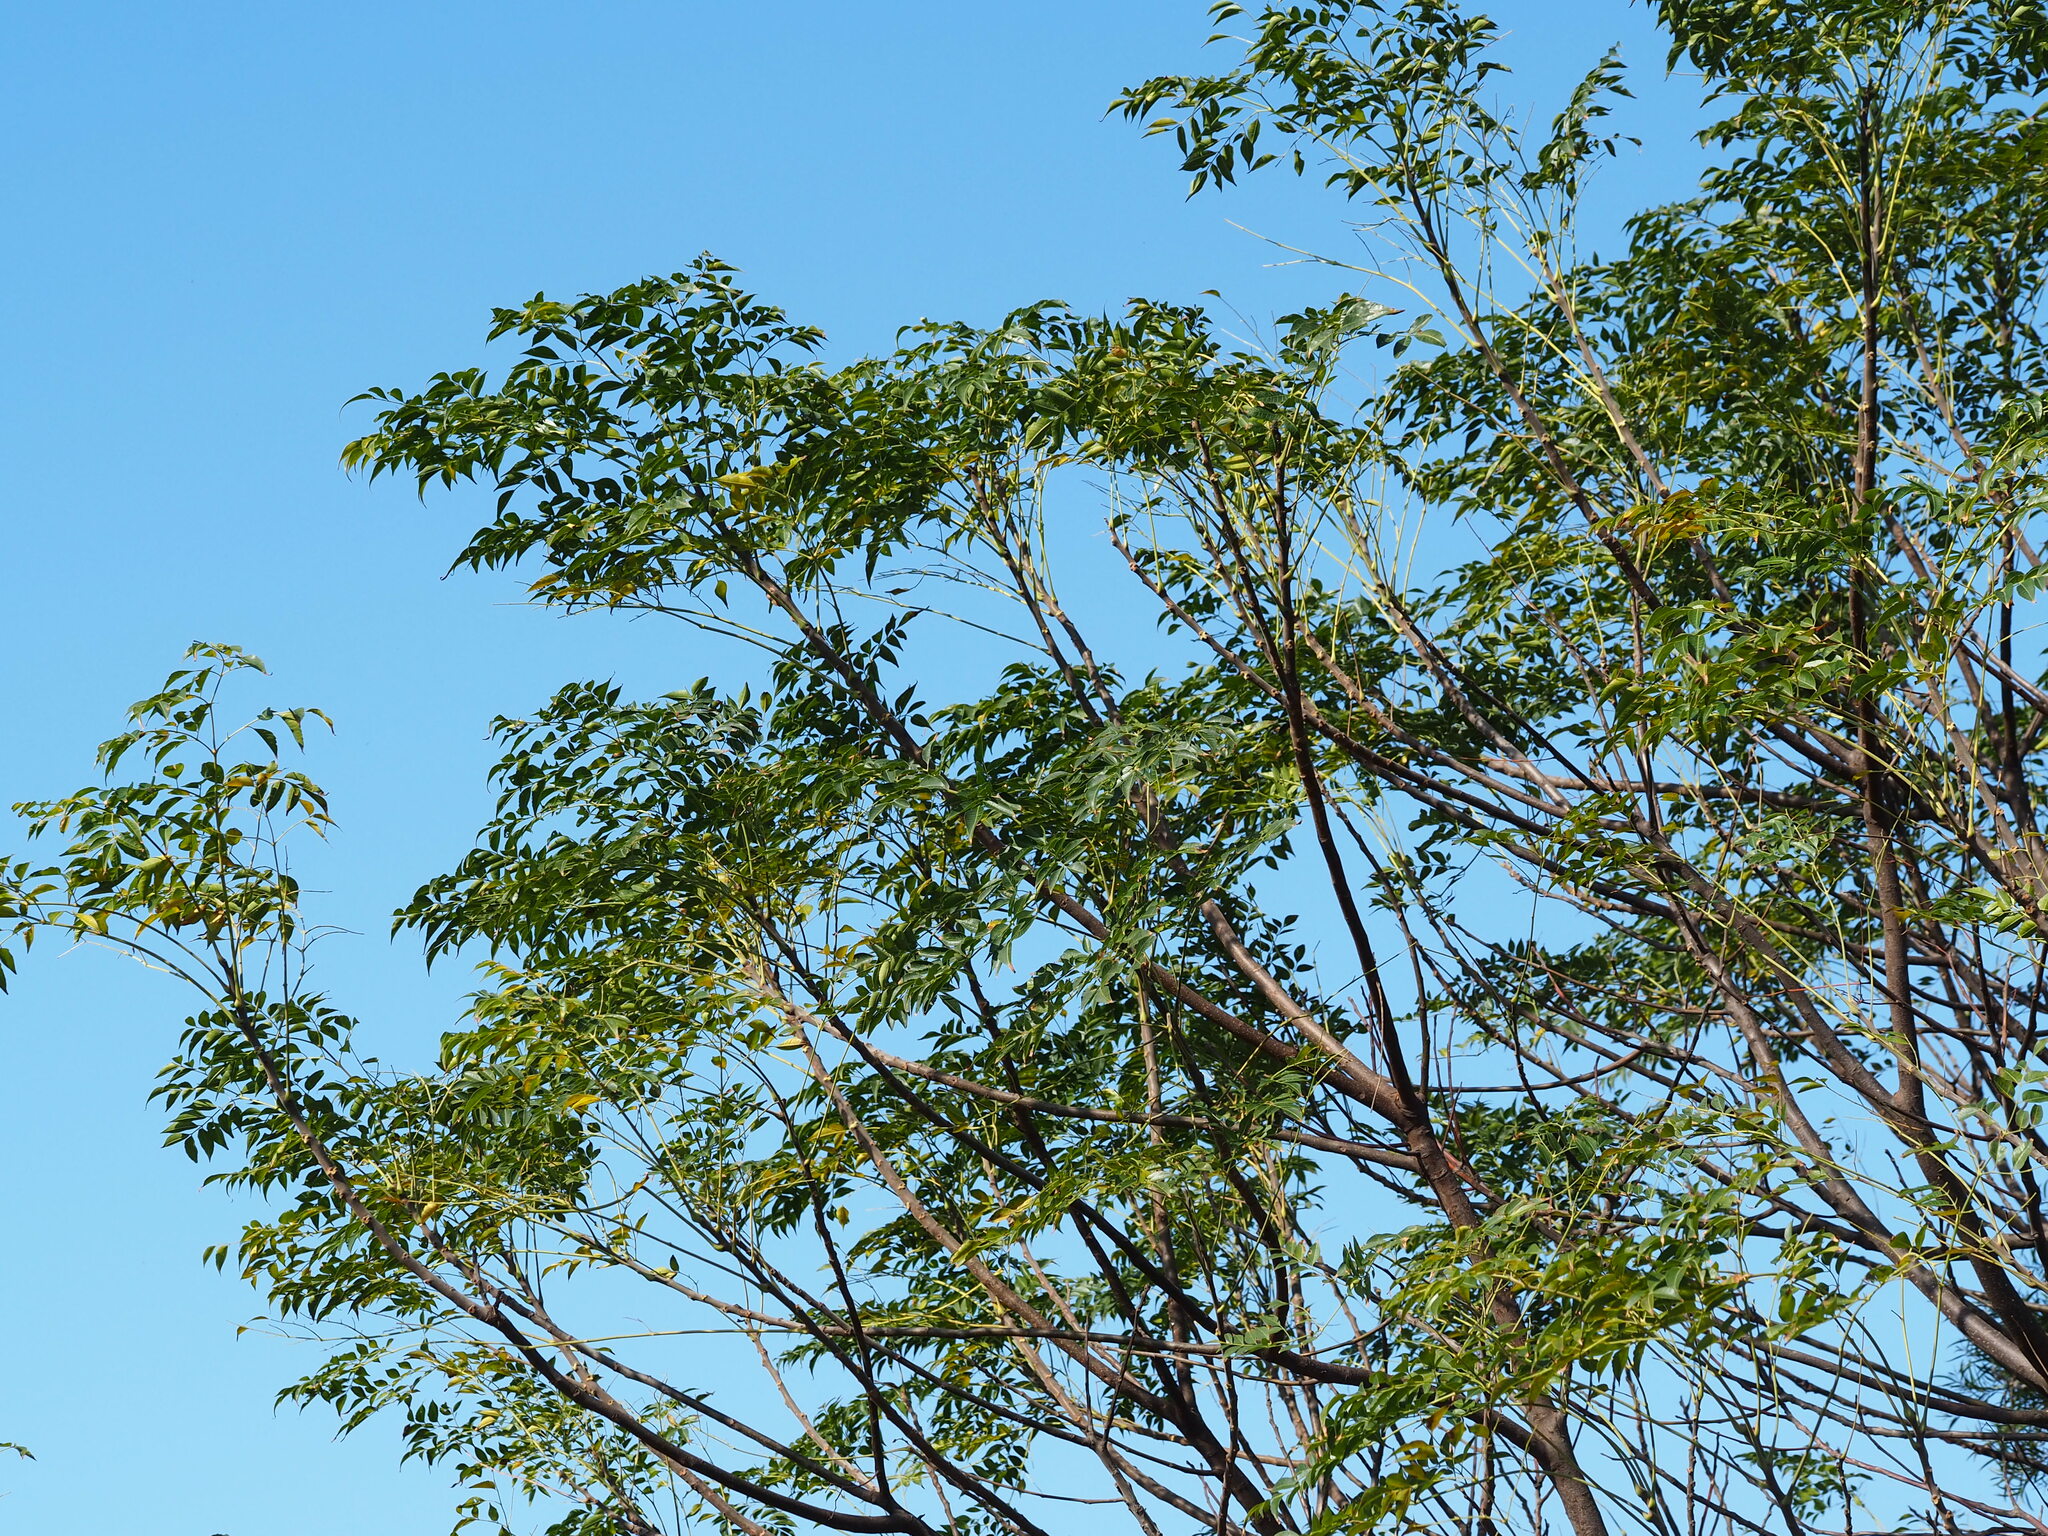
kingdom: Plantae
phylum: Tracheophyta
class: Magnoliopsida
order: Sapindales
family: Meliaceae
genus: Melia
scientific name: Melia azedarach
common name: Chinaberrytree
